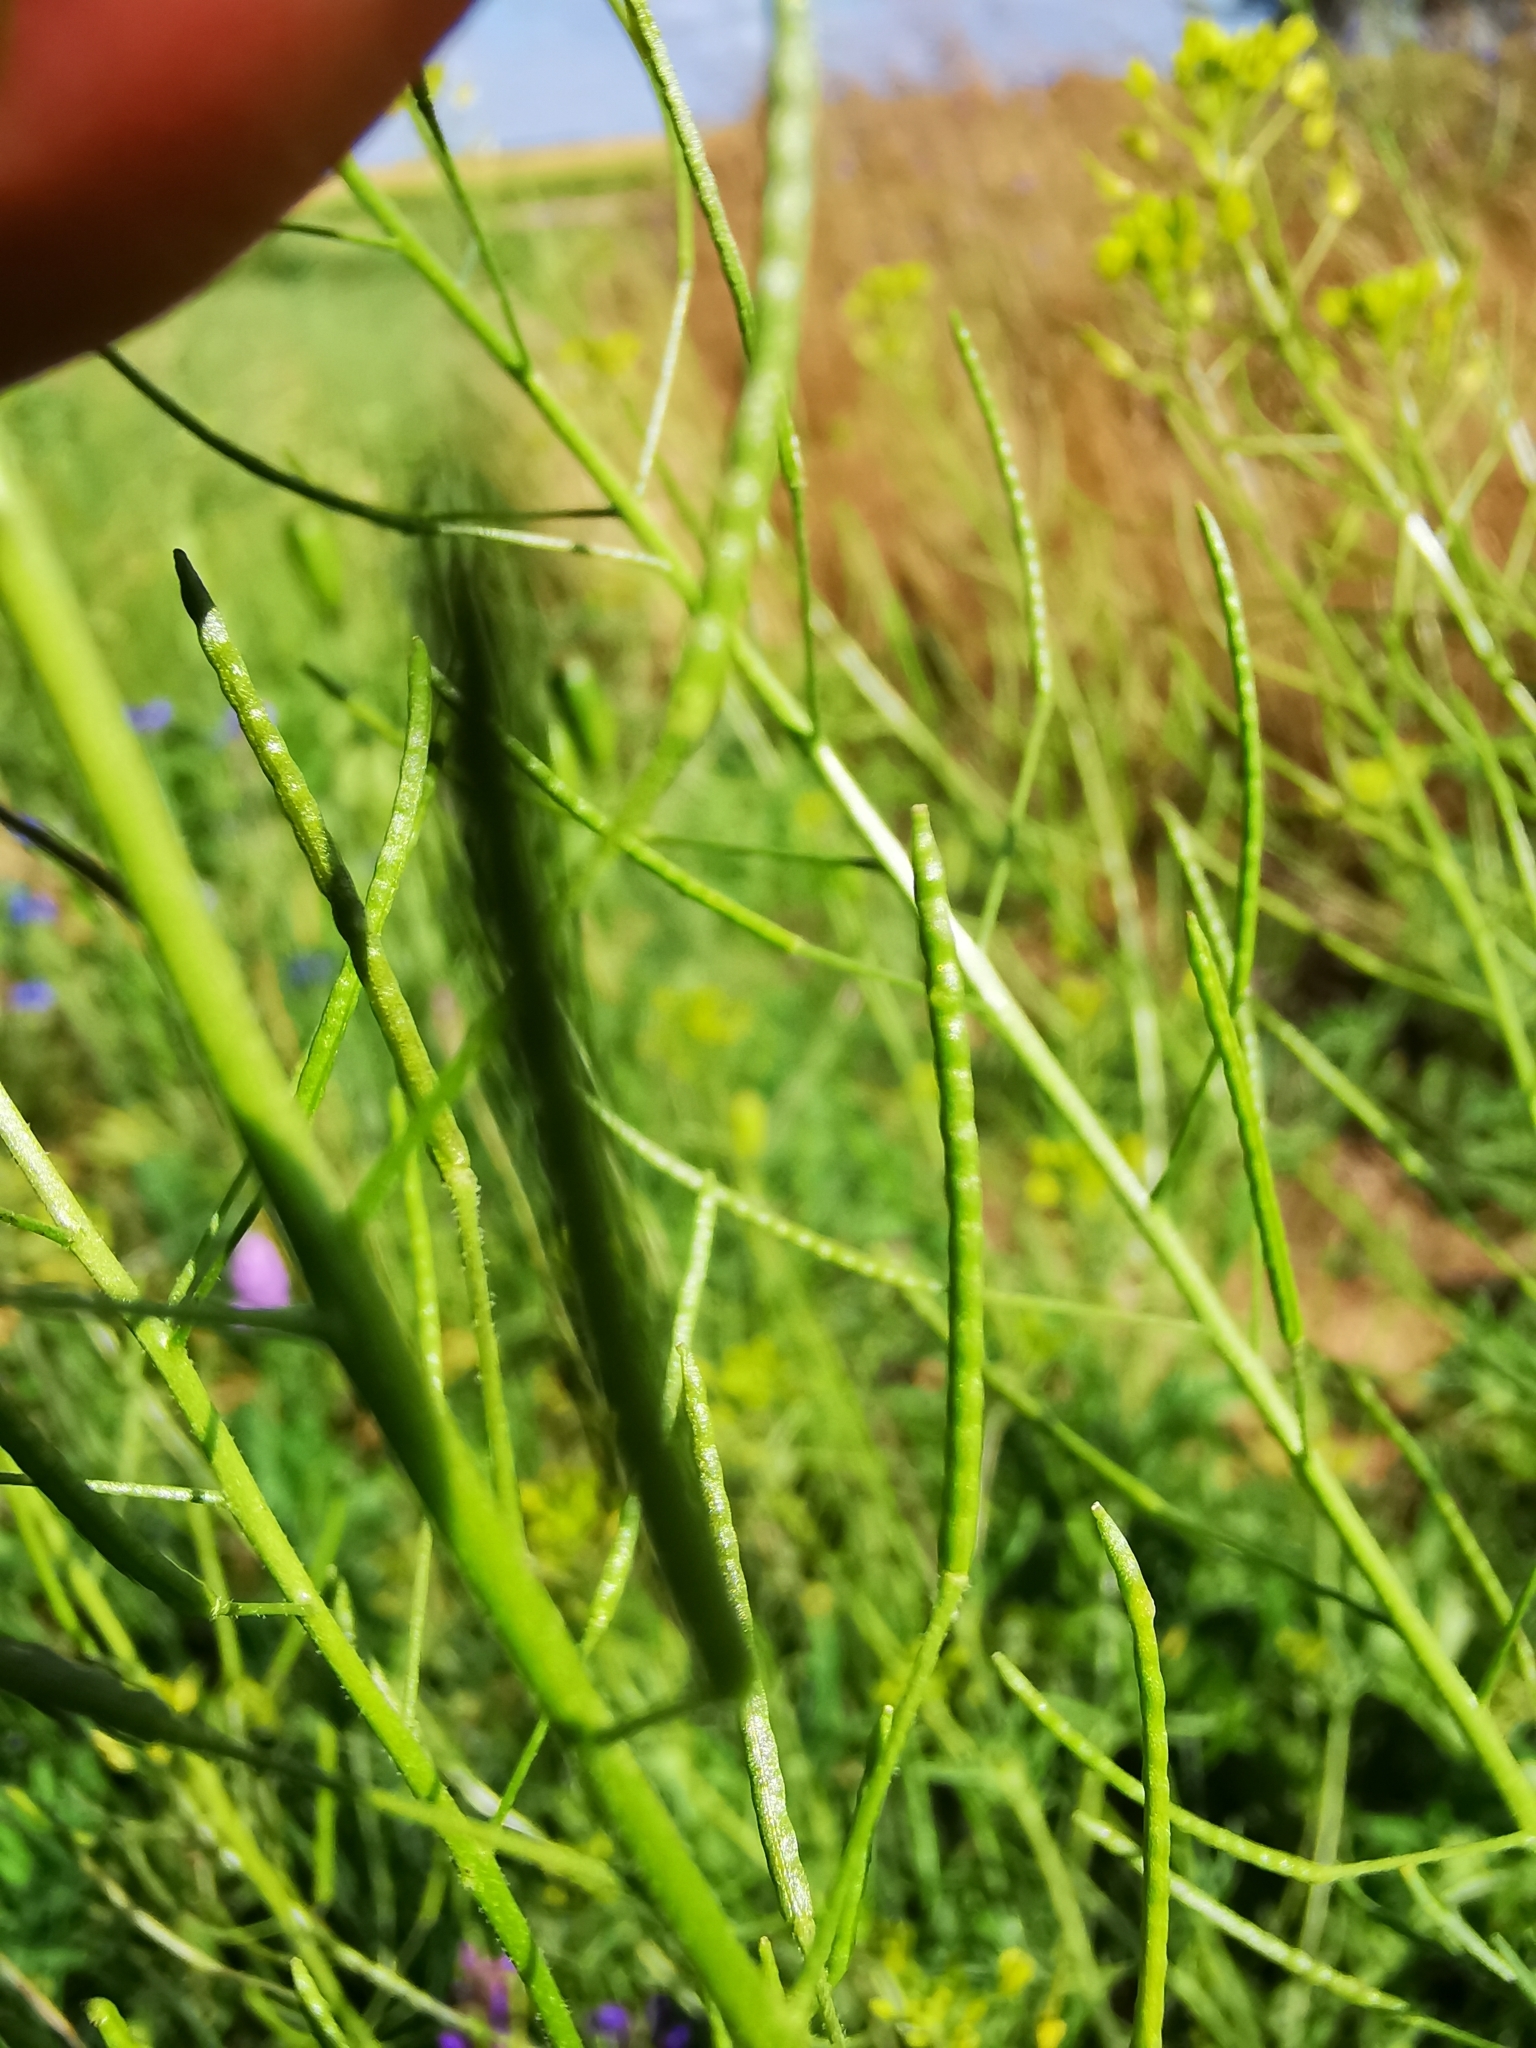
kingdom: Plantae
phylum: Tracheophyta
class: Magnoliopsida
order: Brassicales
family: Brassicaceae
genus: Descurainia
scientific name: Descurainia sophia
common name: Flixweed
